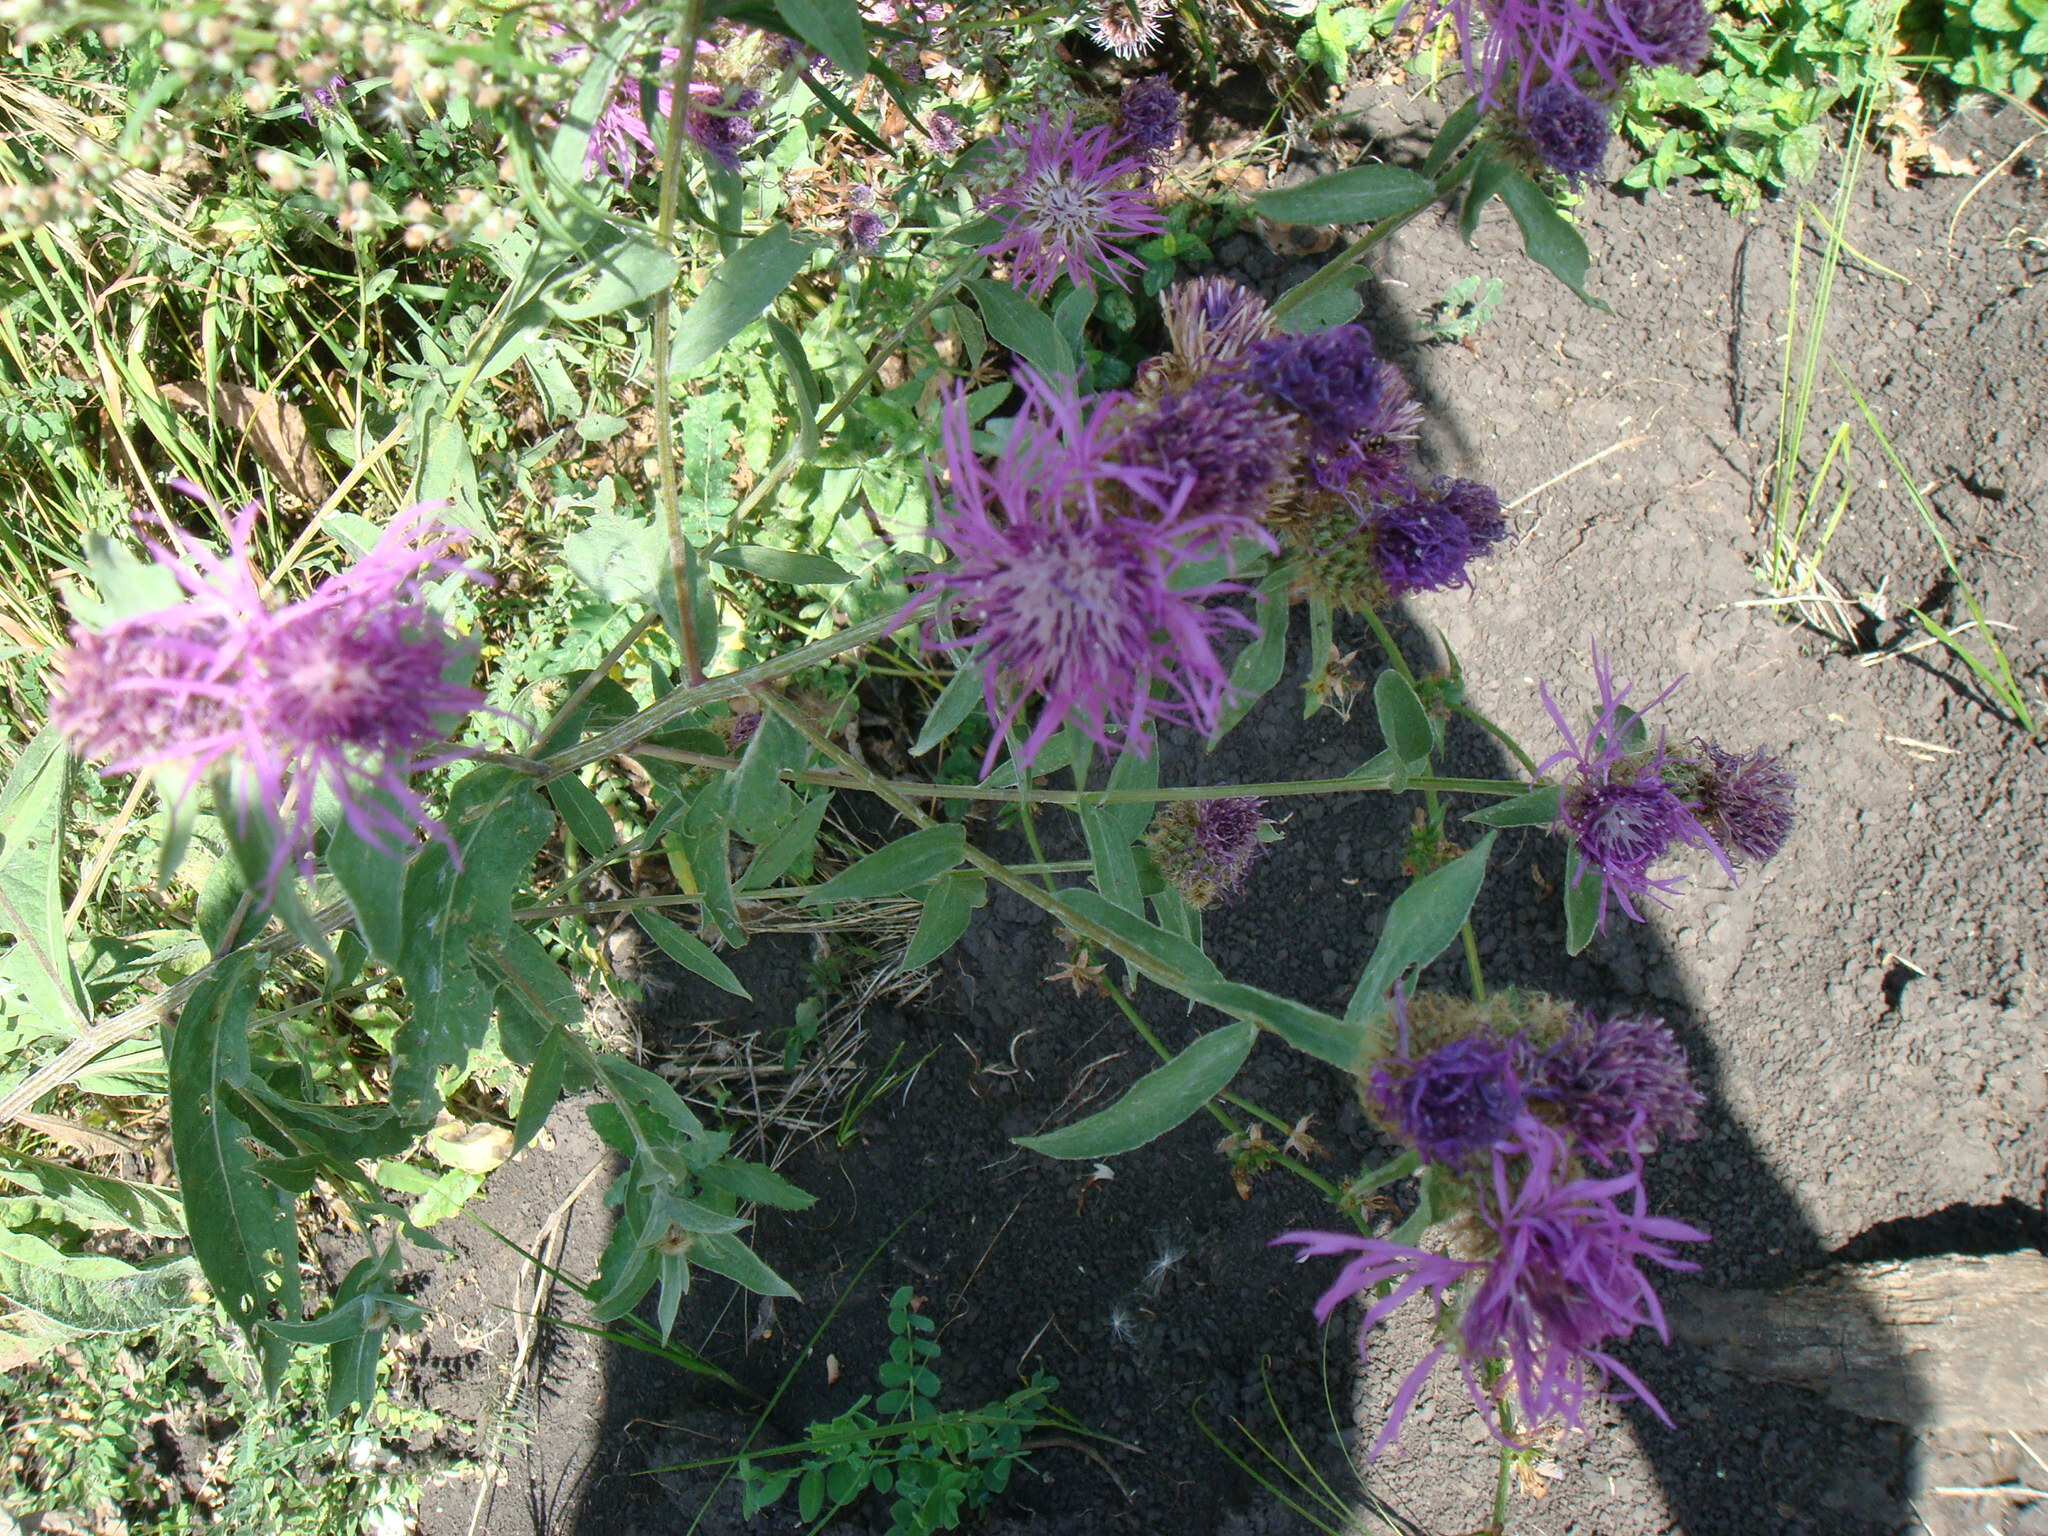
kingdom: Plantae
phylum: Tracheophyta
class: Magnoliopsida
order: Asterales
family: Asteraceae
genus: Centaurea
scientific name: Centaurea pseudophrygia
